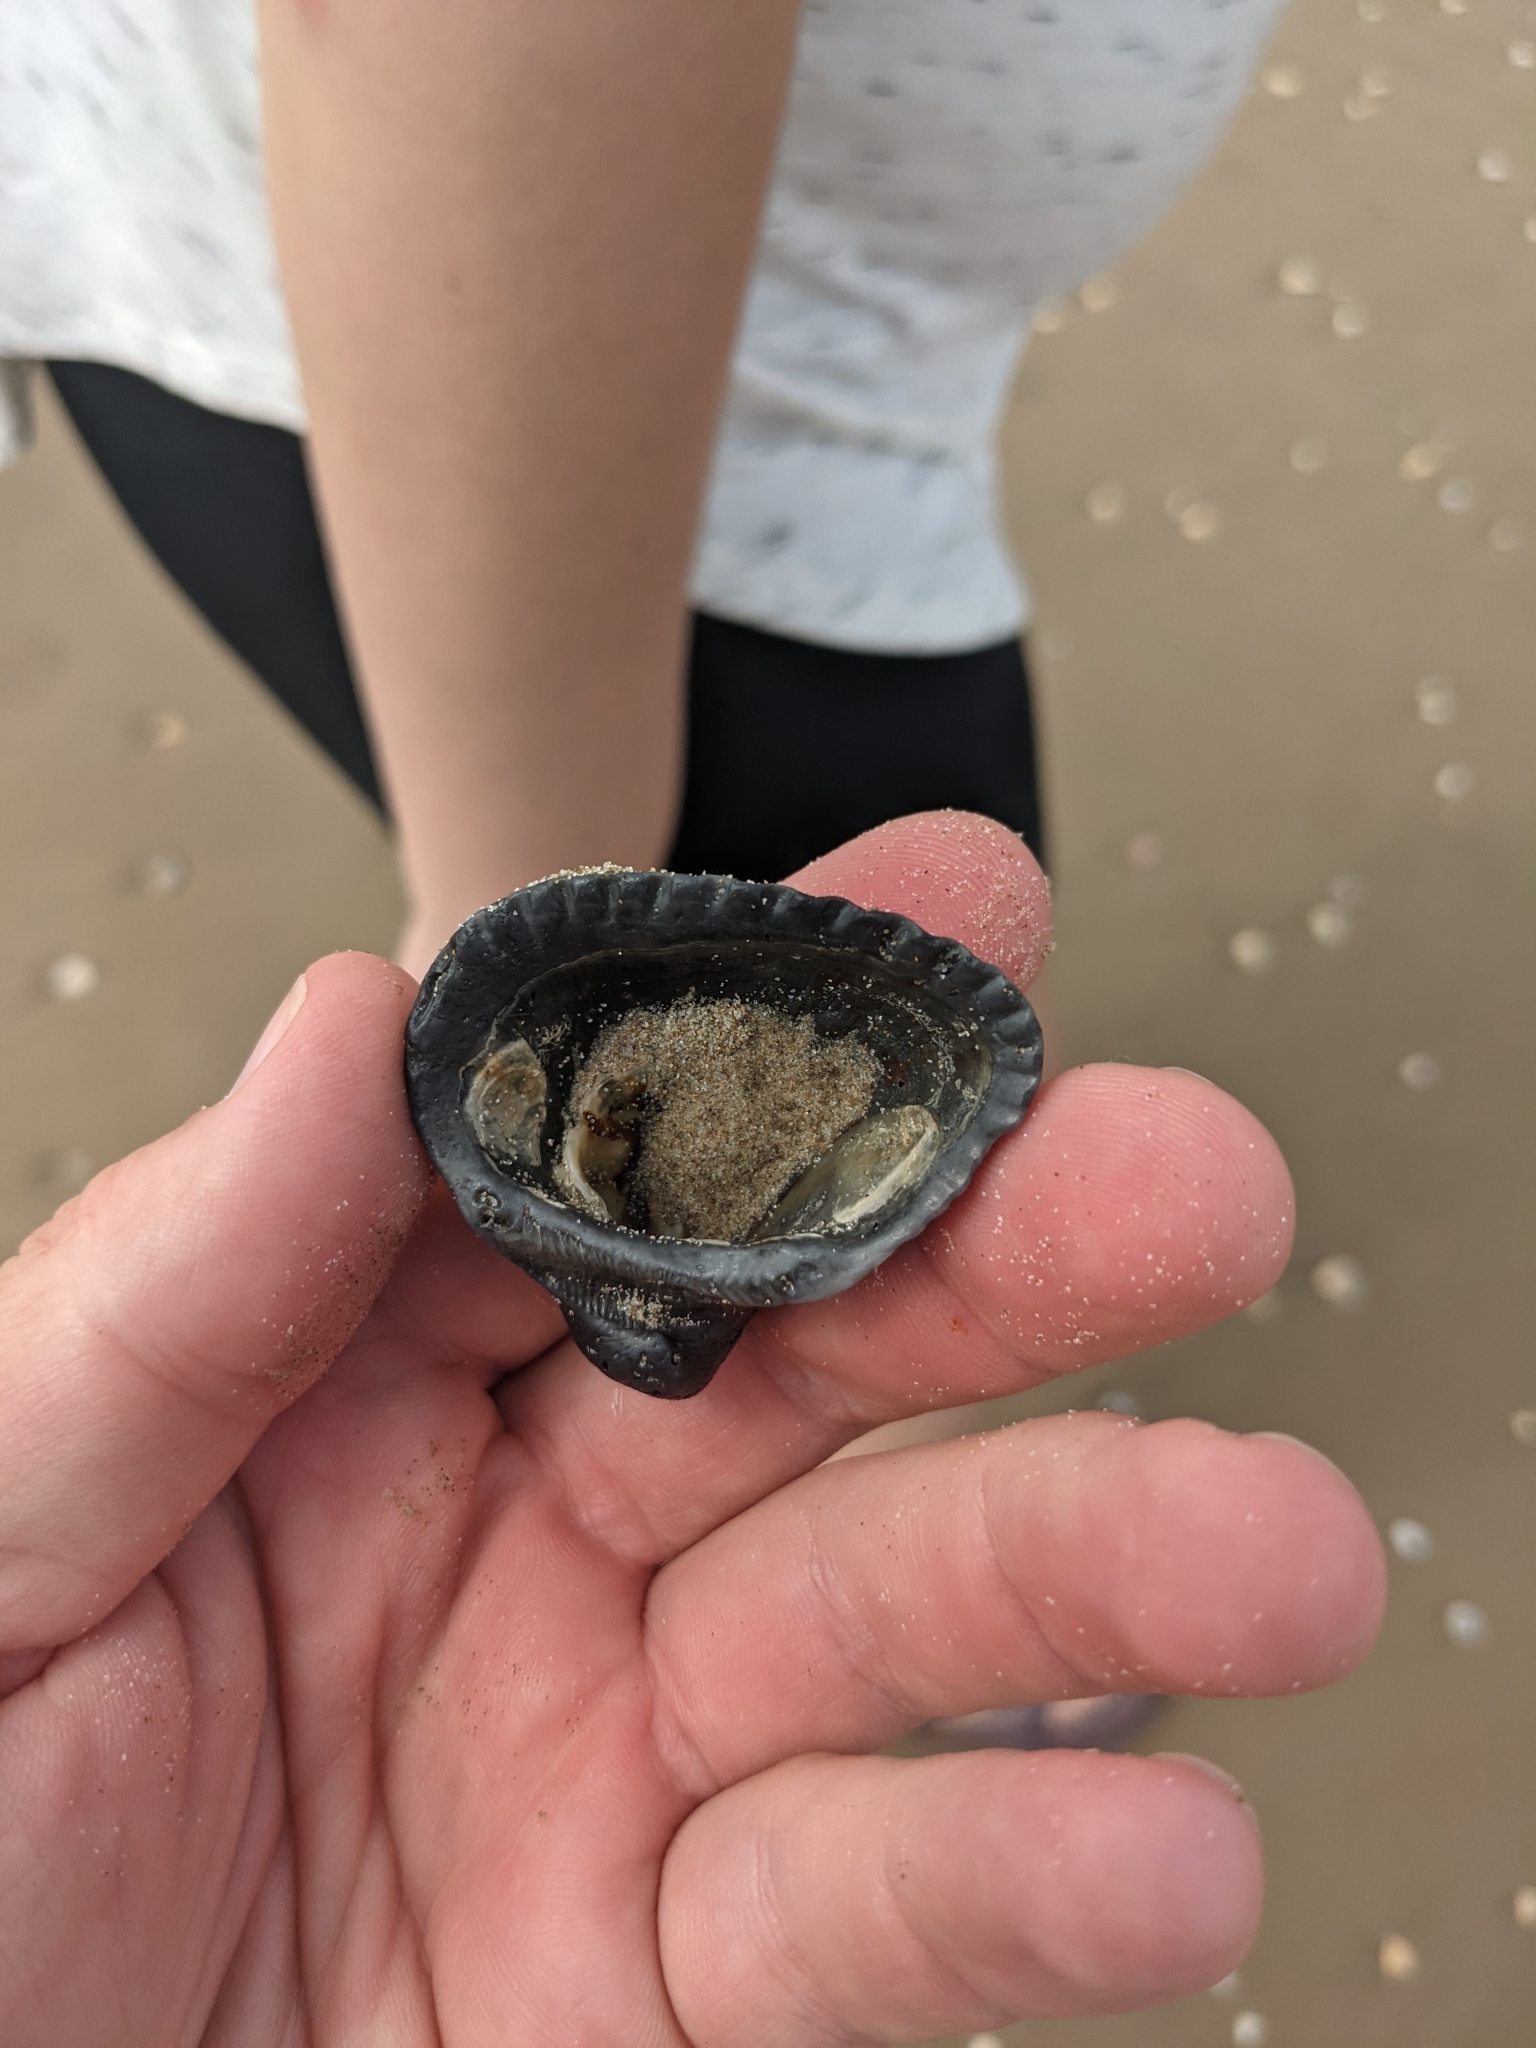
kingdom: Animalia
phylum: Mollusca
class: Bivalvia
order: Arcida
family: Noetiidae
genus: Noetia
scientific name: Noetia ponderosa
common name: Ponderous ark
